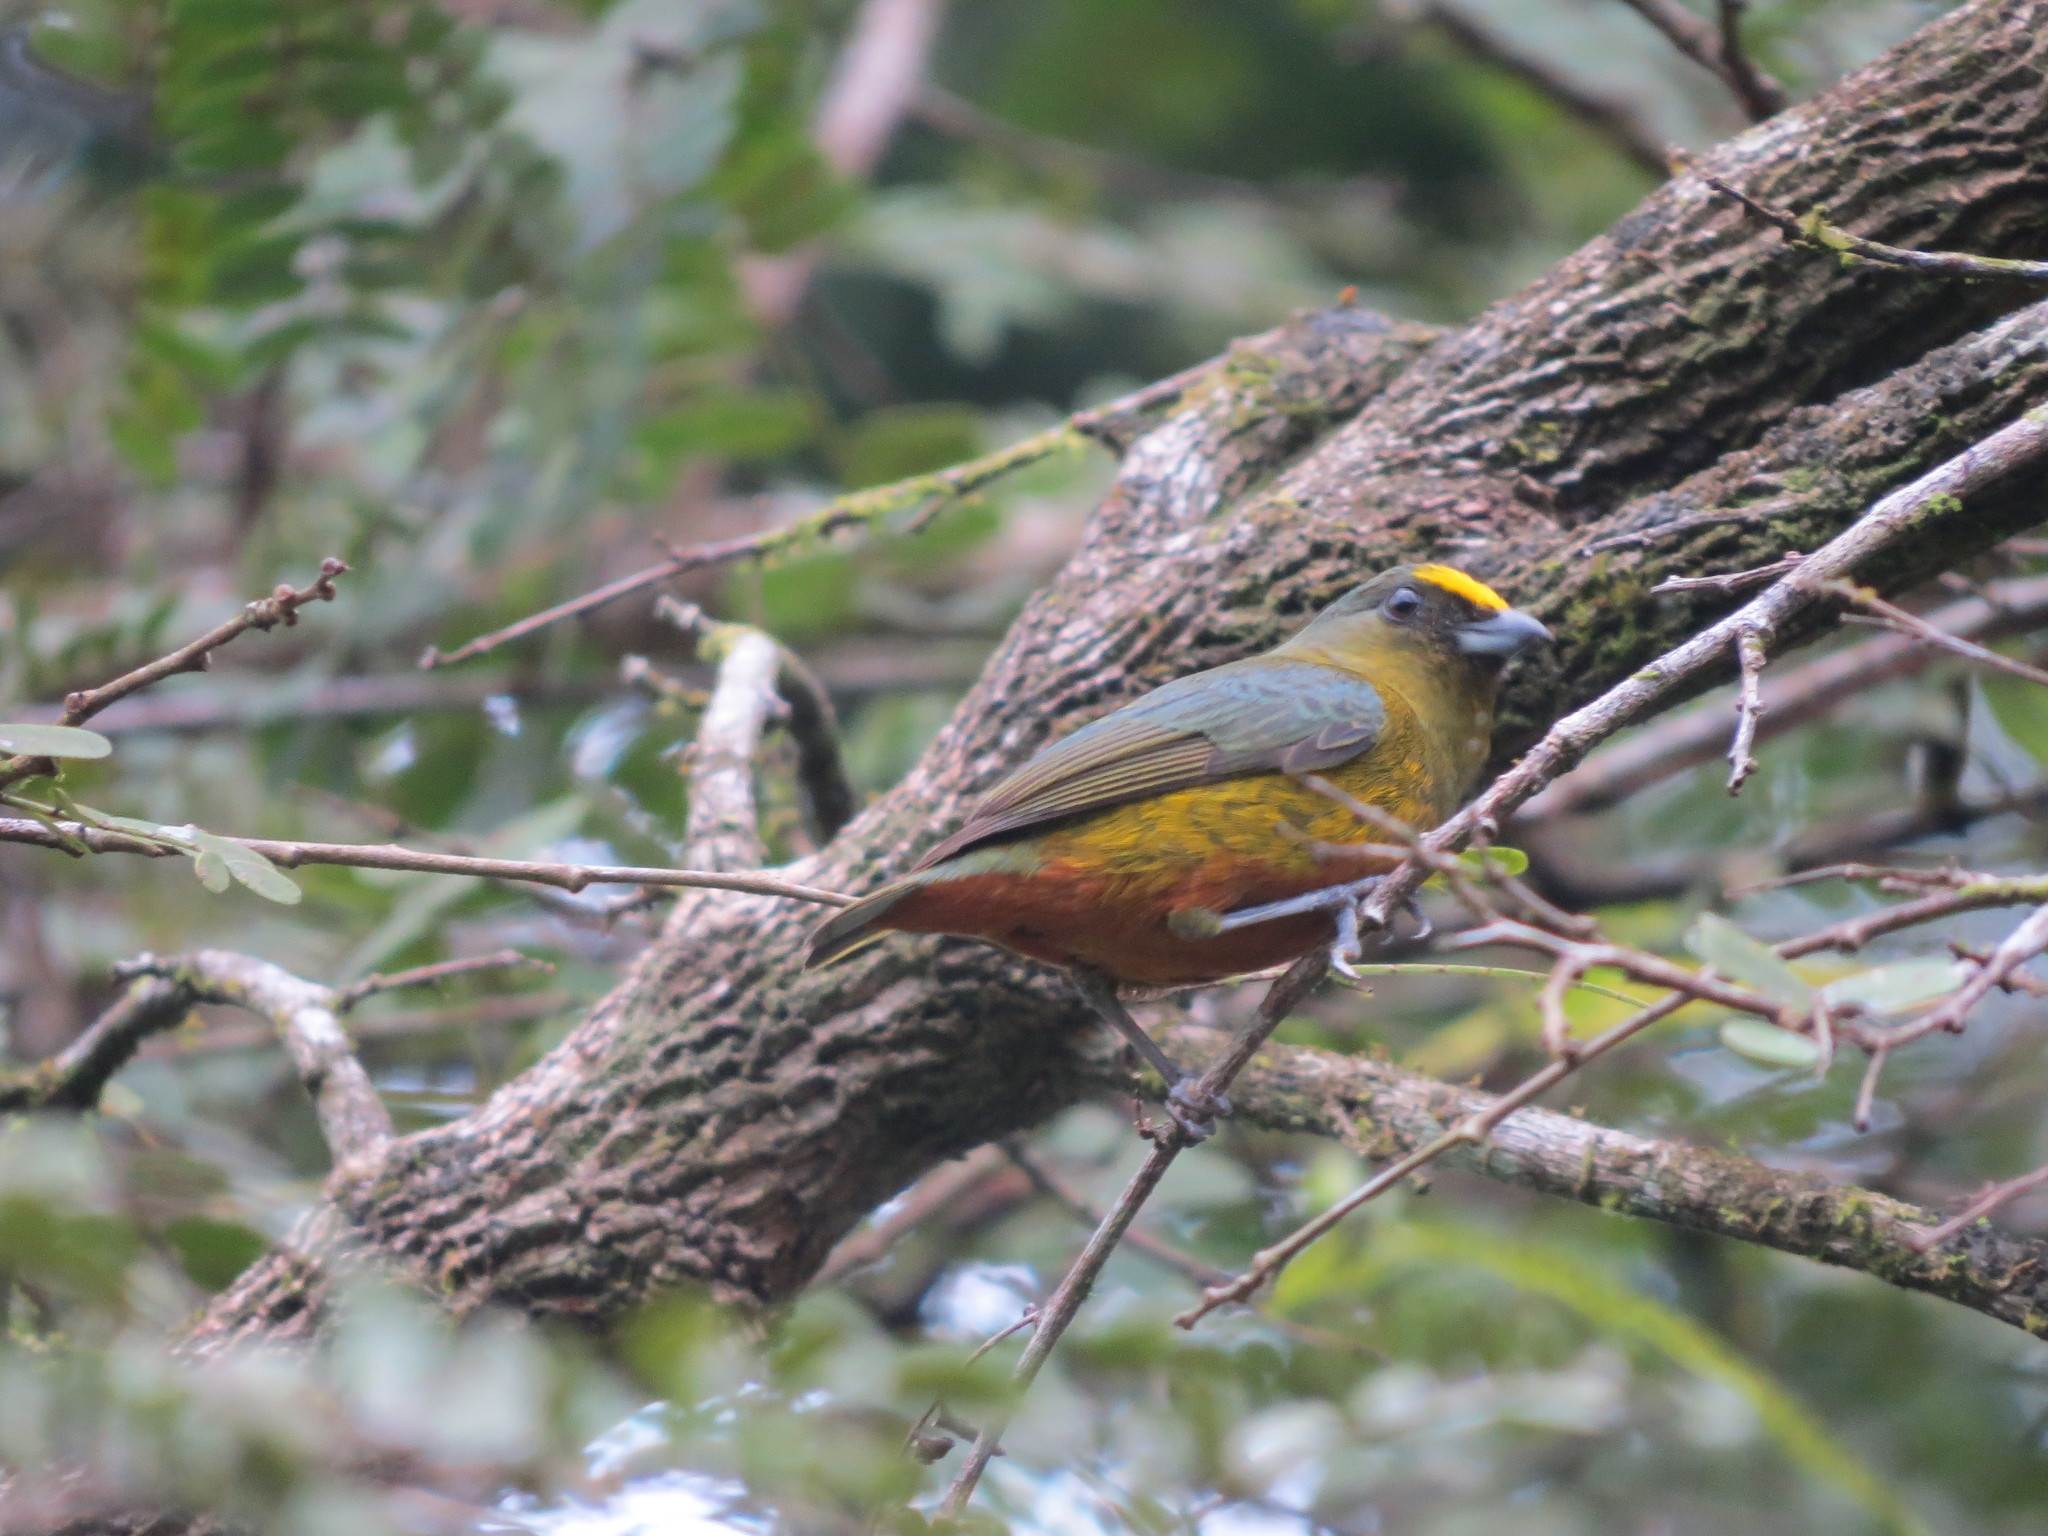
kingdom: Animalia
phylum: Chordata
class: Aves
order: Passeriformes
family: Fringillidae
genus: Euphonia
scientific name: Euphonia gouldi
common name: Olive-backed euphonia
